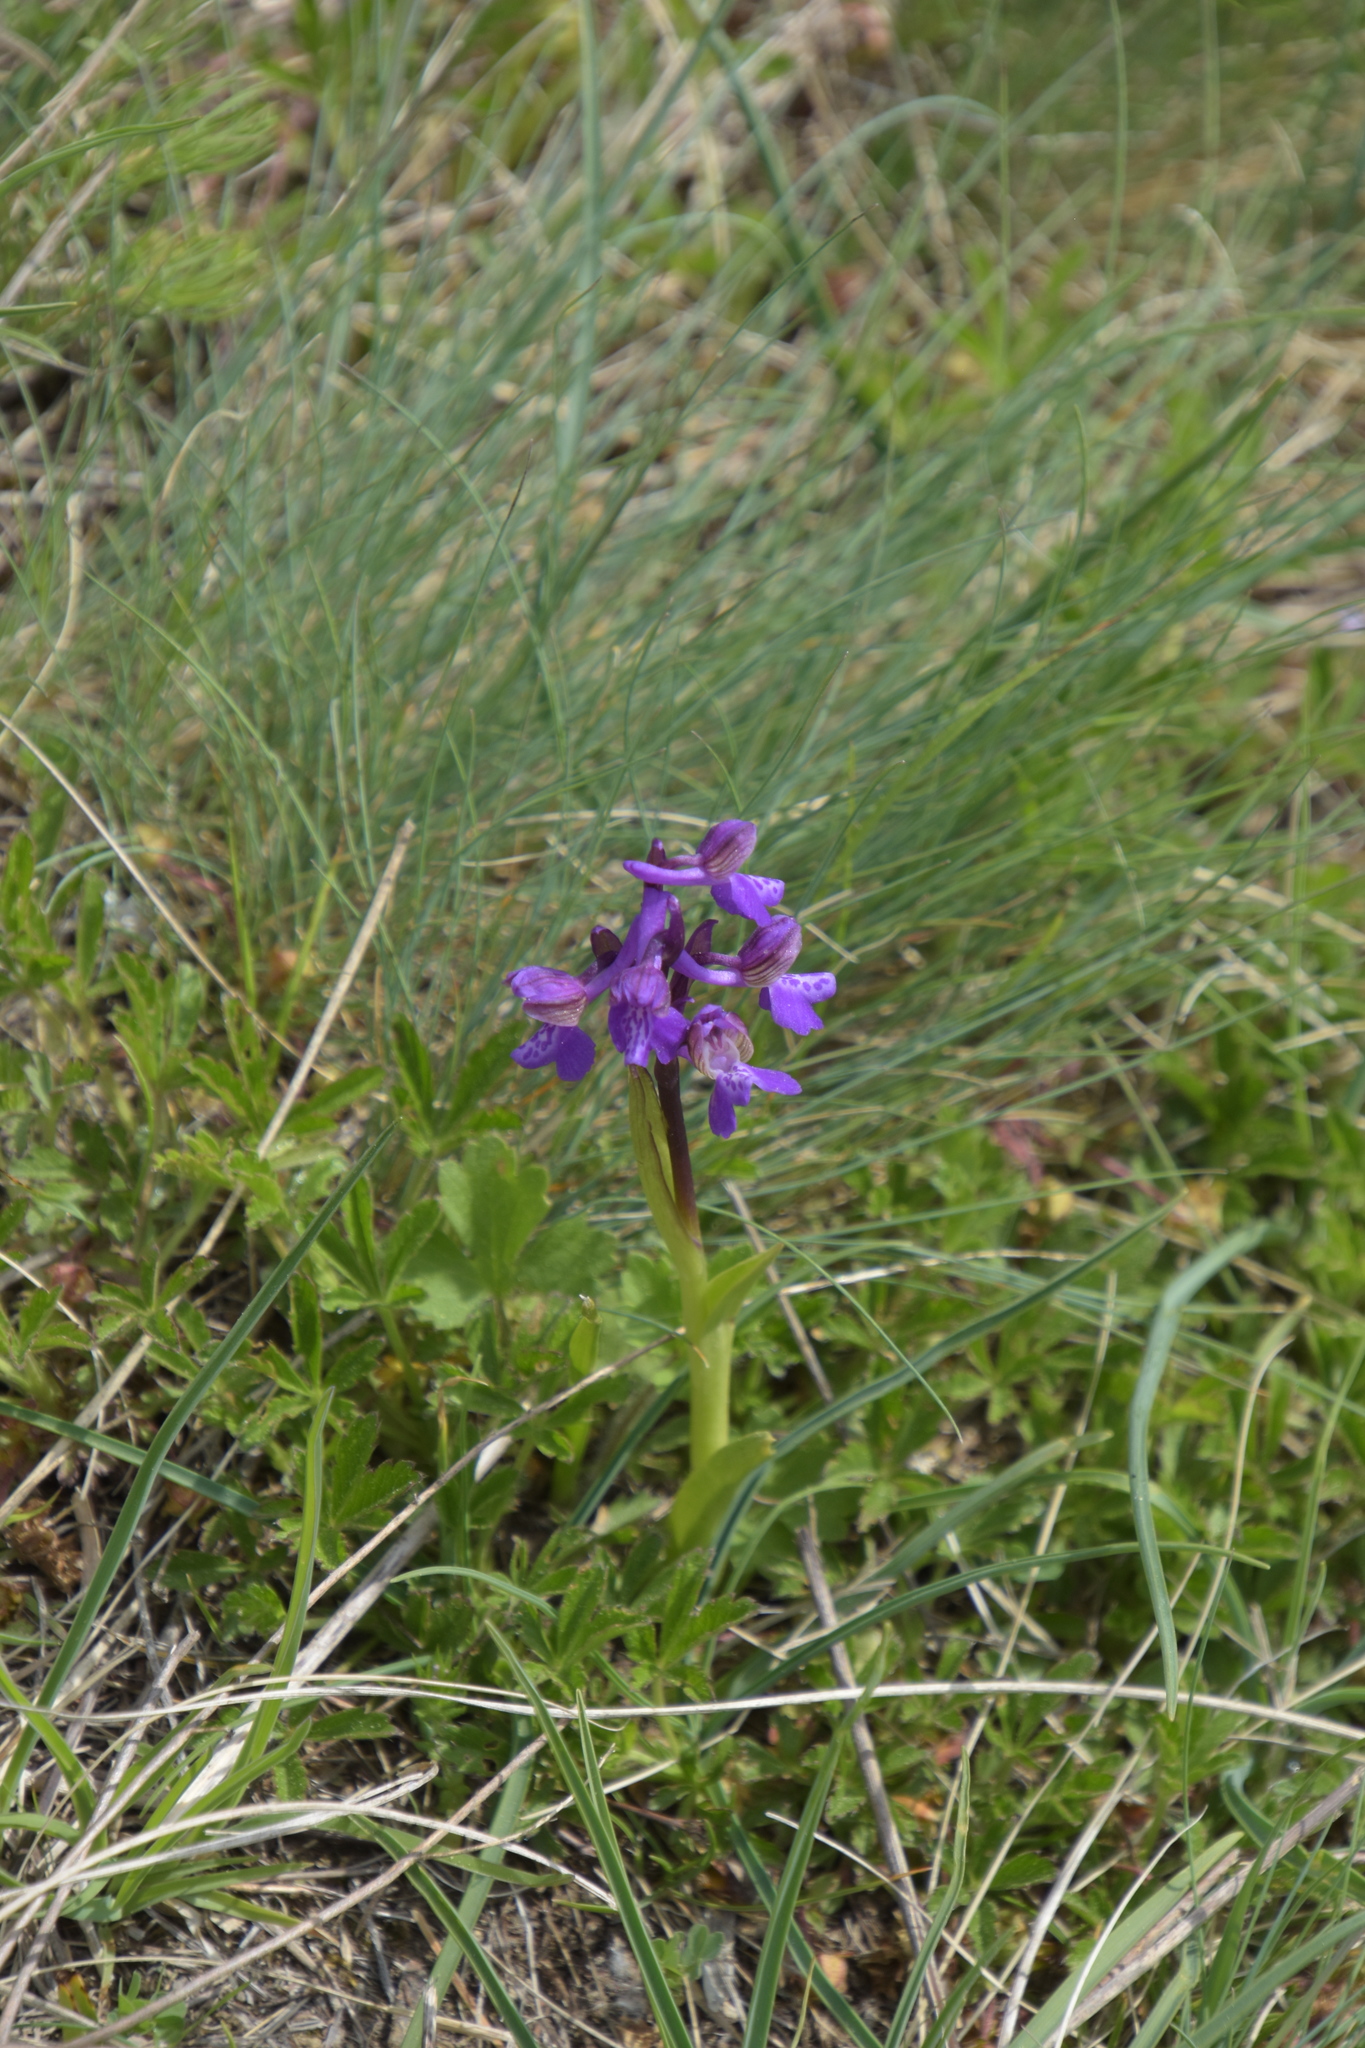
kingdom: Plantae
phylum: Tracheophyta
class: Liliopsida
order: Asparagales
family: Orchidaceae
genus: Anacamptis
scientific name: Anacamptis morio
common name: Green-winged orchid
